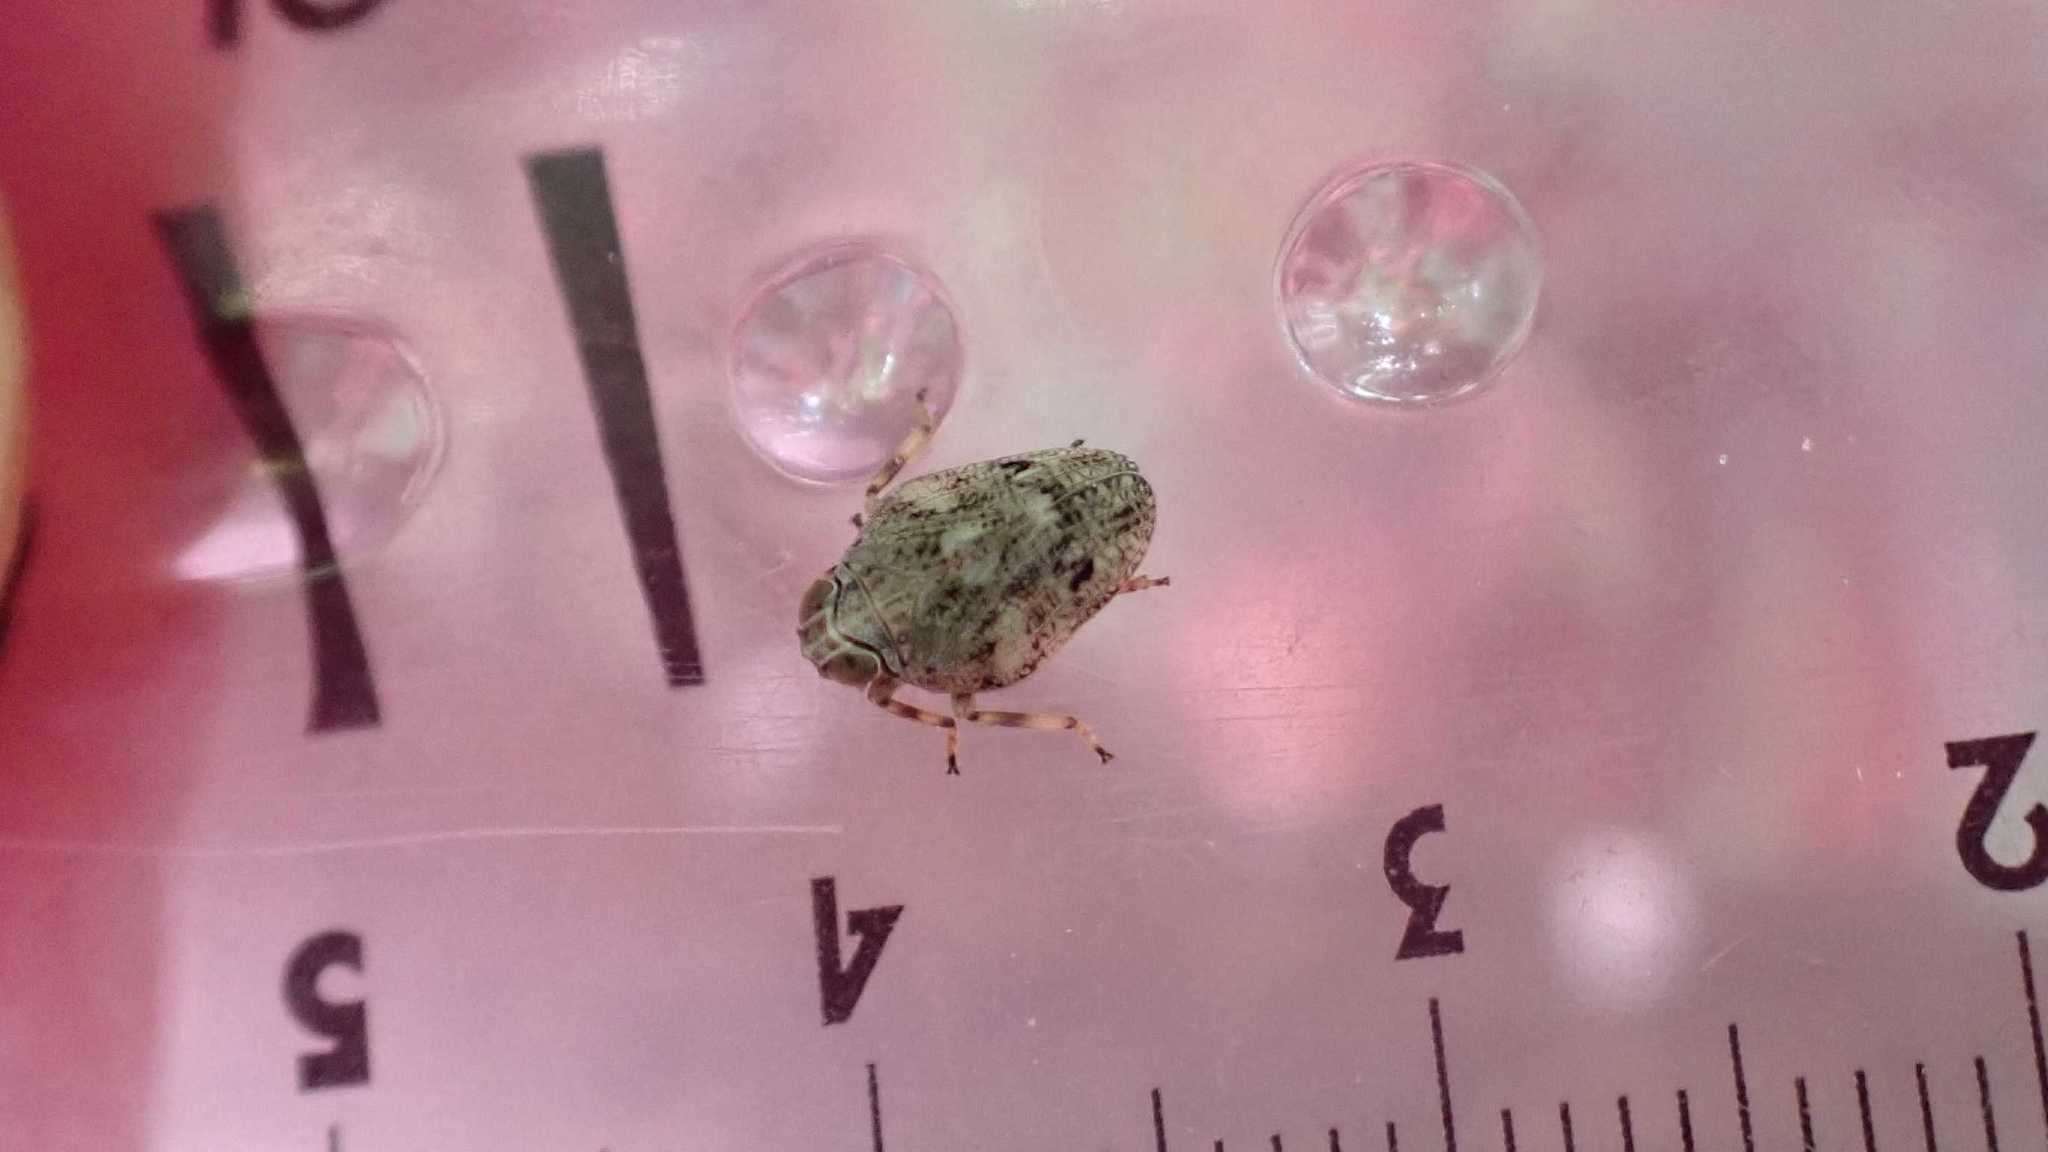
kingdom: Animalia
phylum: Arthropoda
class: Insecta
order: Hemiptera
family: Issidae
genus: Issus
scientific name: Issus coleoptratus
